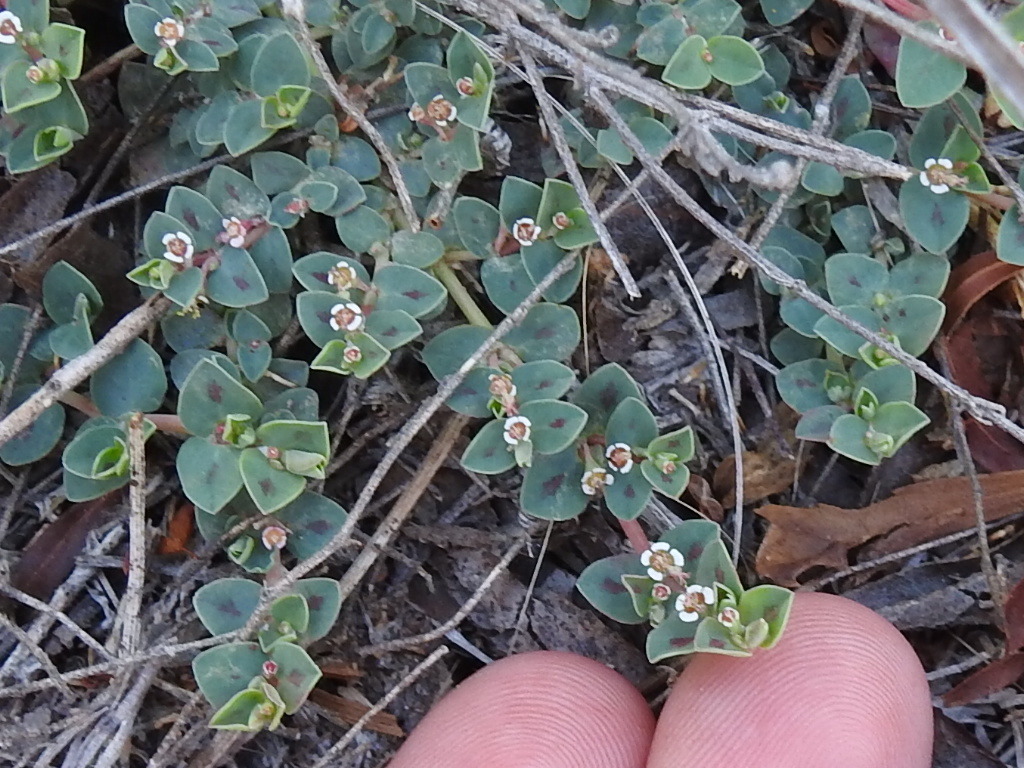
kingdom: Plantae
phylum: Tracheophyta
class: Magnoliopsida
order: Malpighiales
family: Euphorbiaceae
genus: Euphorbia
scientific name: Euphorbia albomarginata
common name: Whitemargin sandmat
